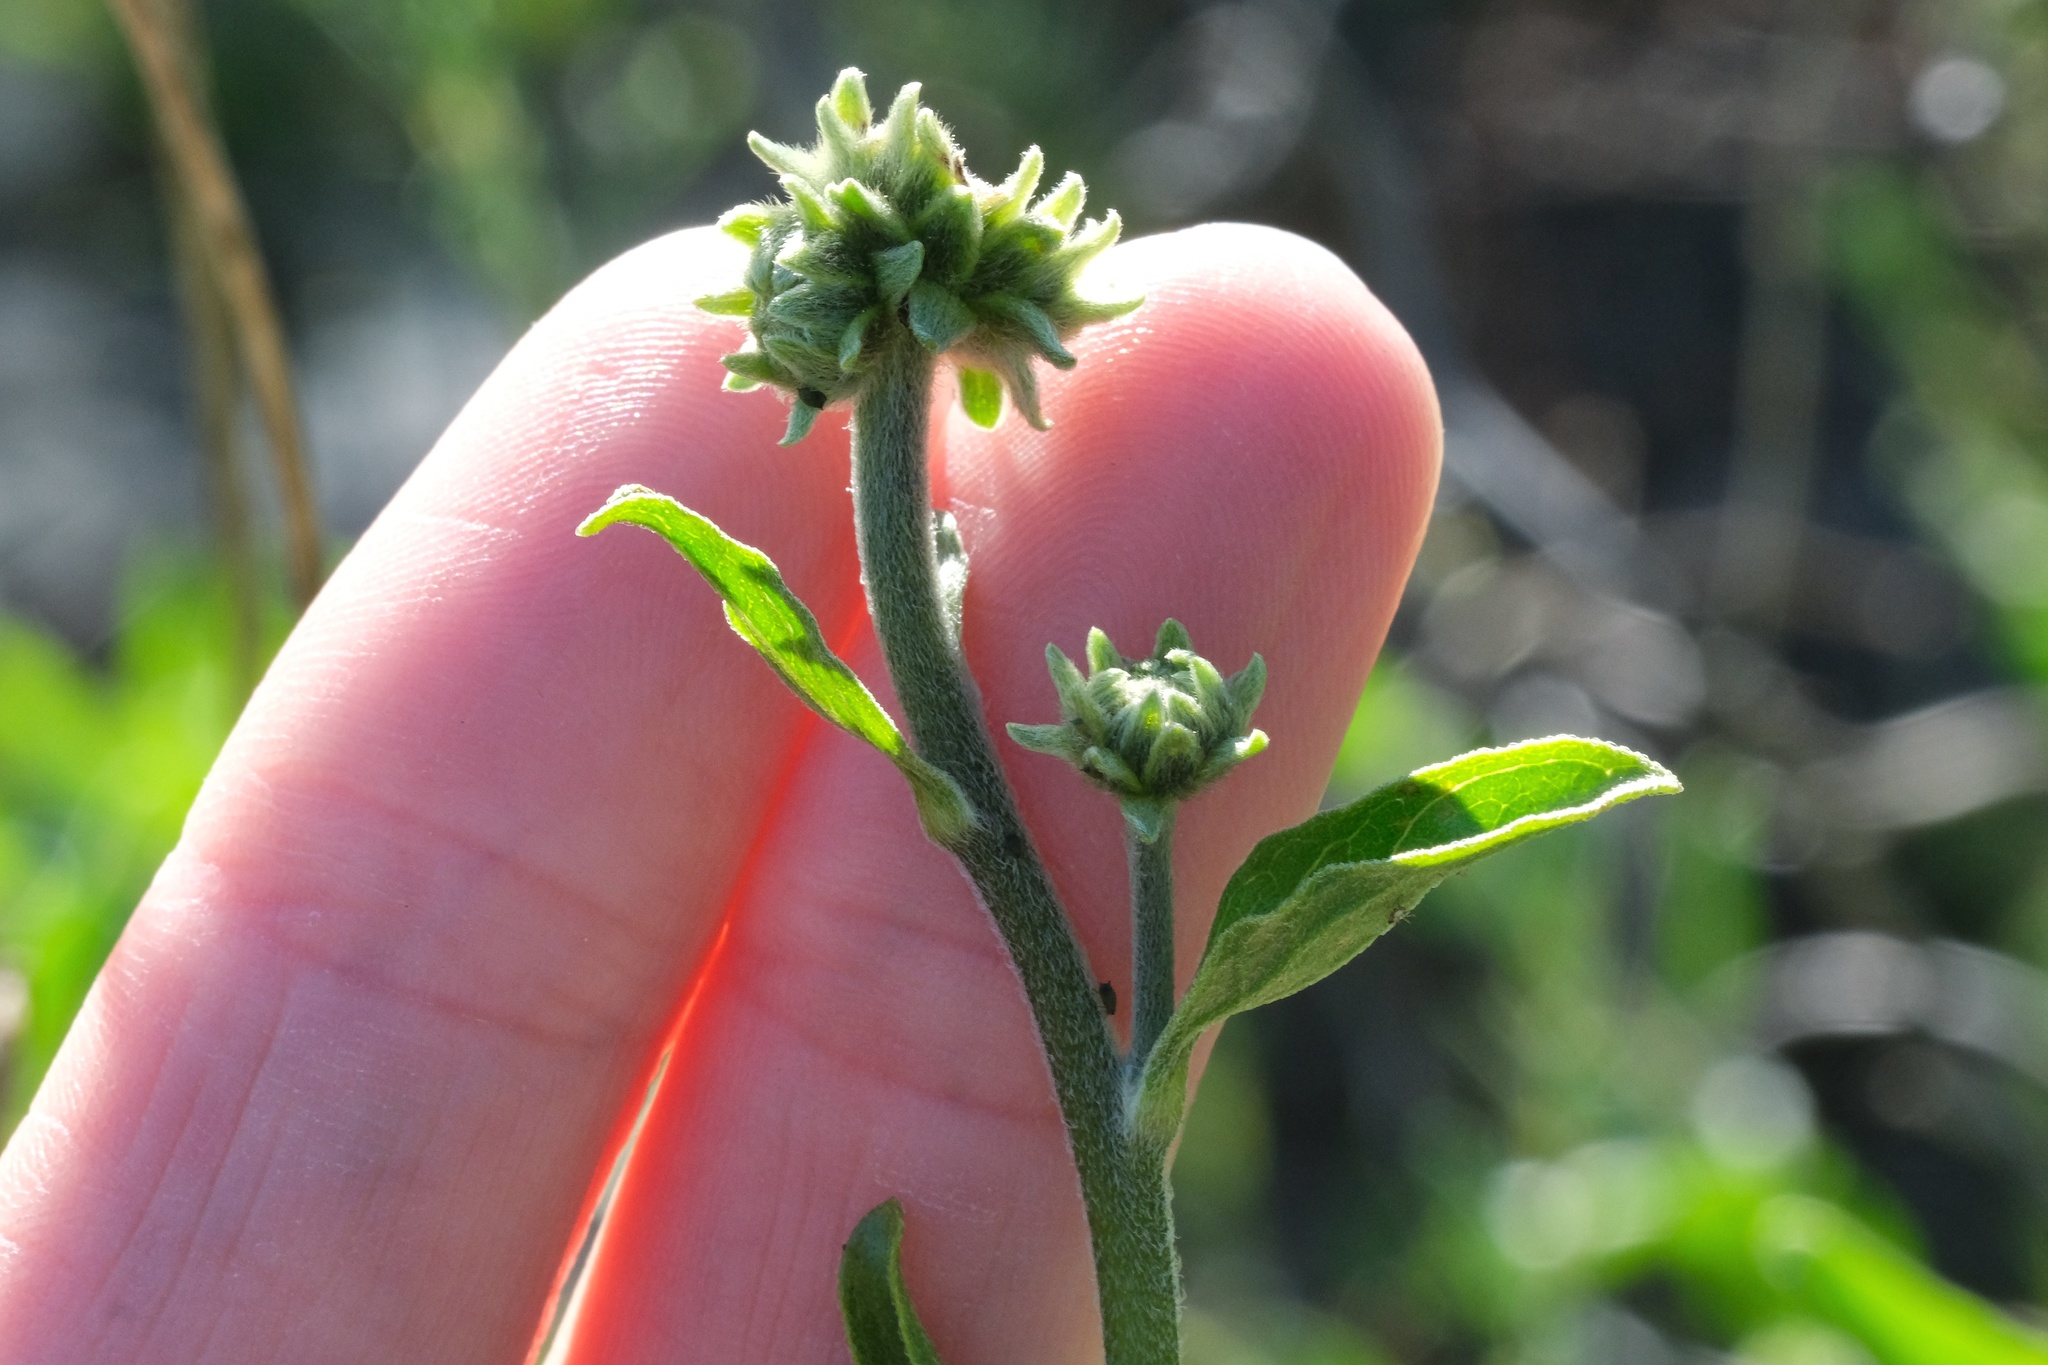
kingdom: Plantae
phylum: Tracheophyta
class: Magnoliopsida
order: Asterales
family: Asteraceae
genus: Encelia
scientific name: Encelia californica
